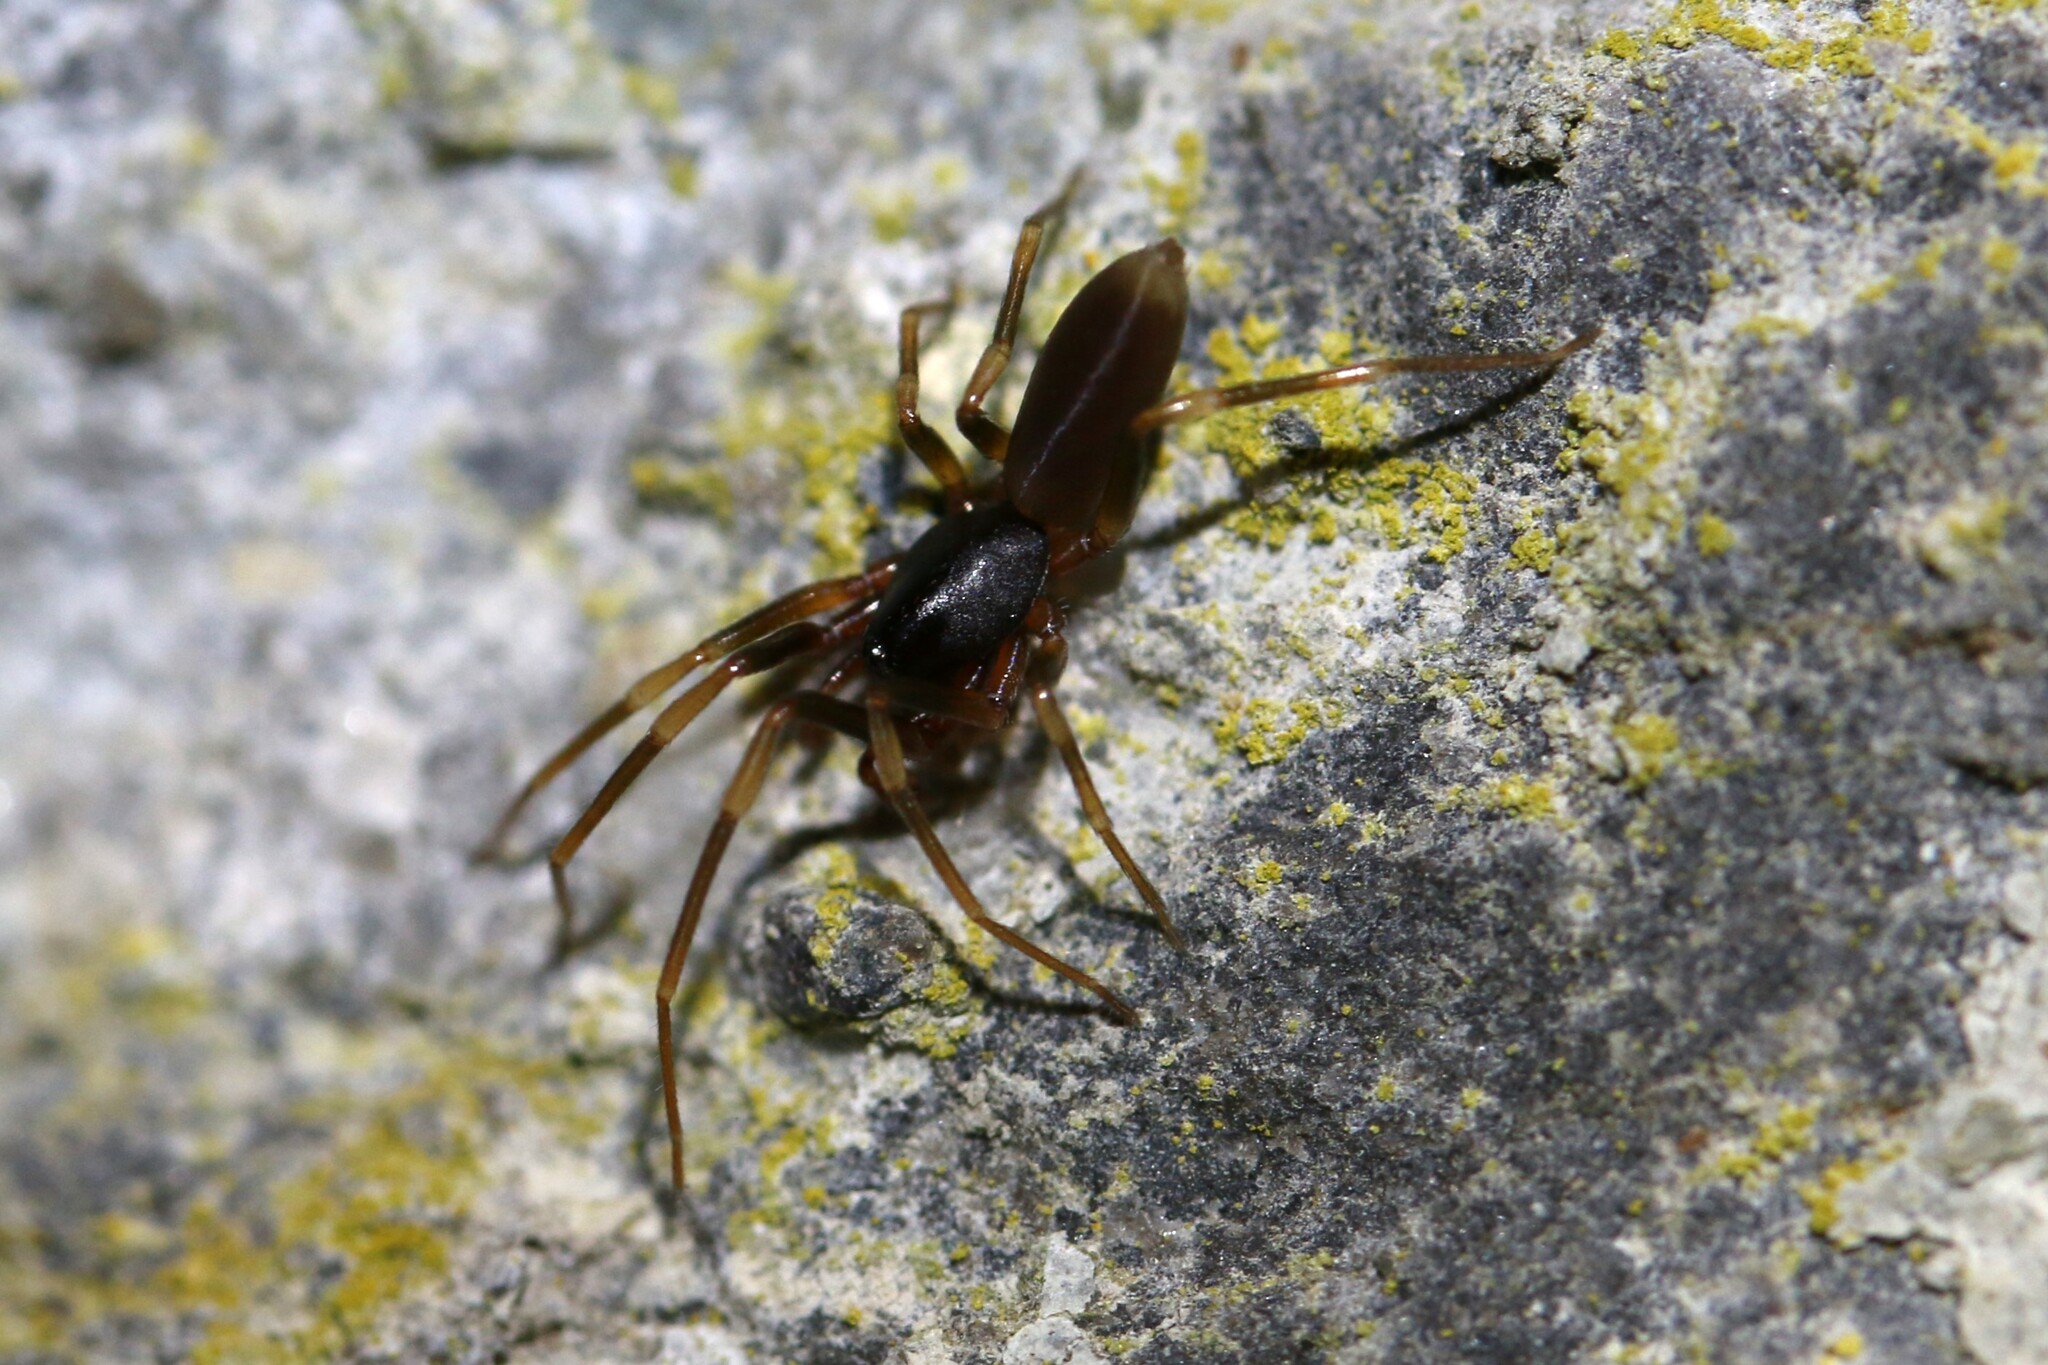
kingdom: Animalia
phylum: Arthropoda
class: Arachnida
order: Araneae
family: Dysderidae
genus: Harpactea
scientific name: Harpactea hombergi
